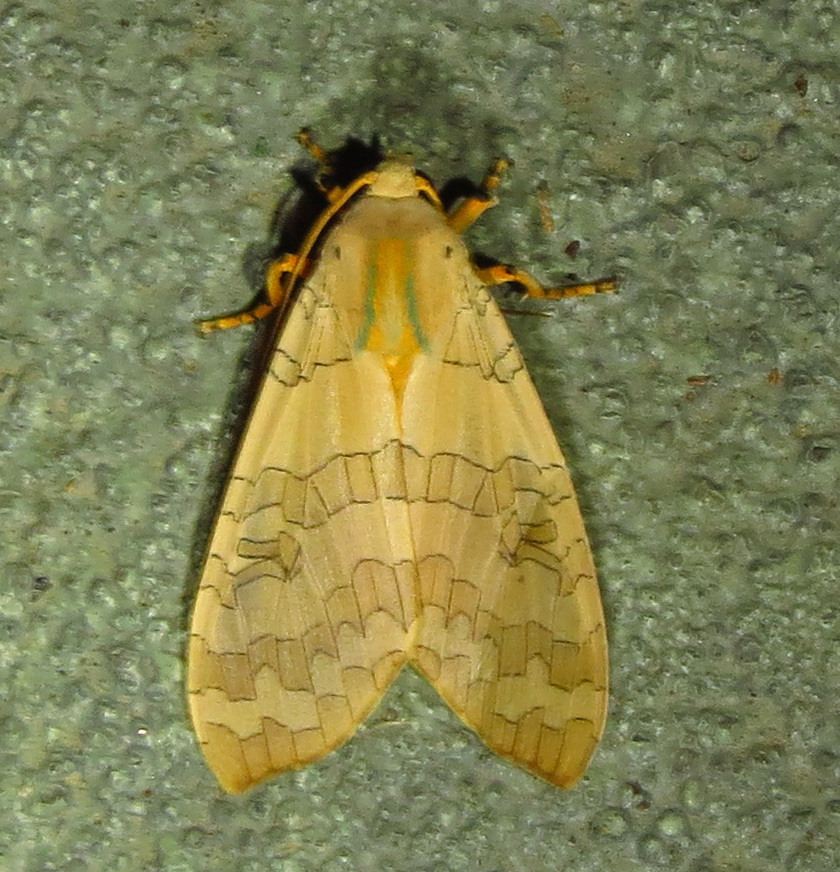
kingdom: Animalia
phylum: Arthropoda
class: Insecta
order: Lepidoptera
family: Erebidae
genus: Halysidota
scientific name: Halysidota
